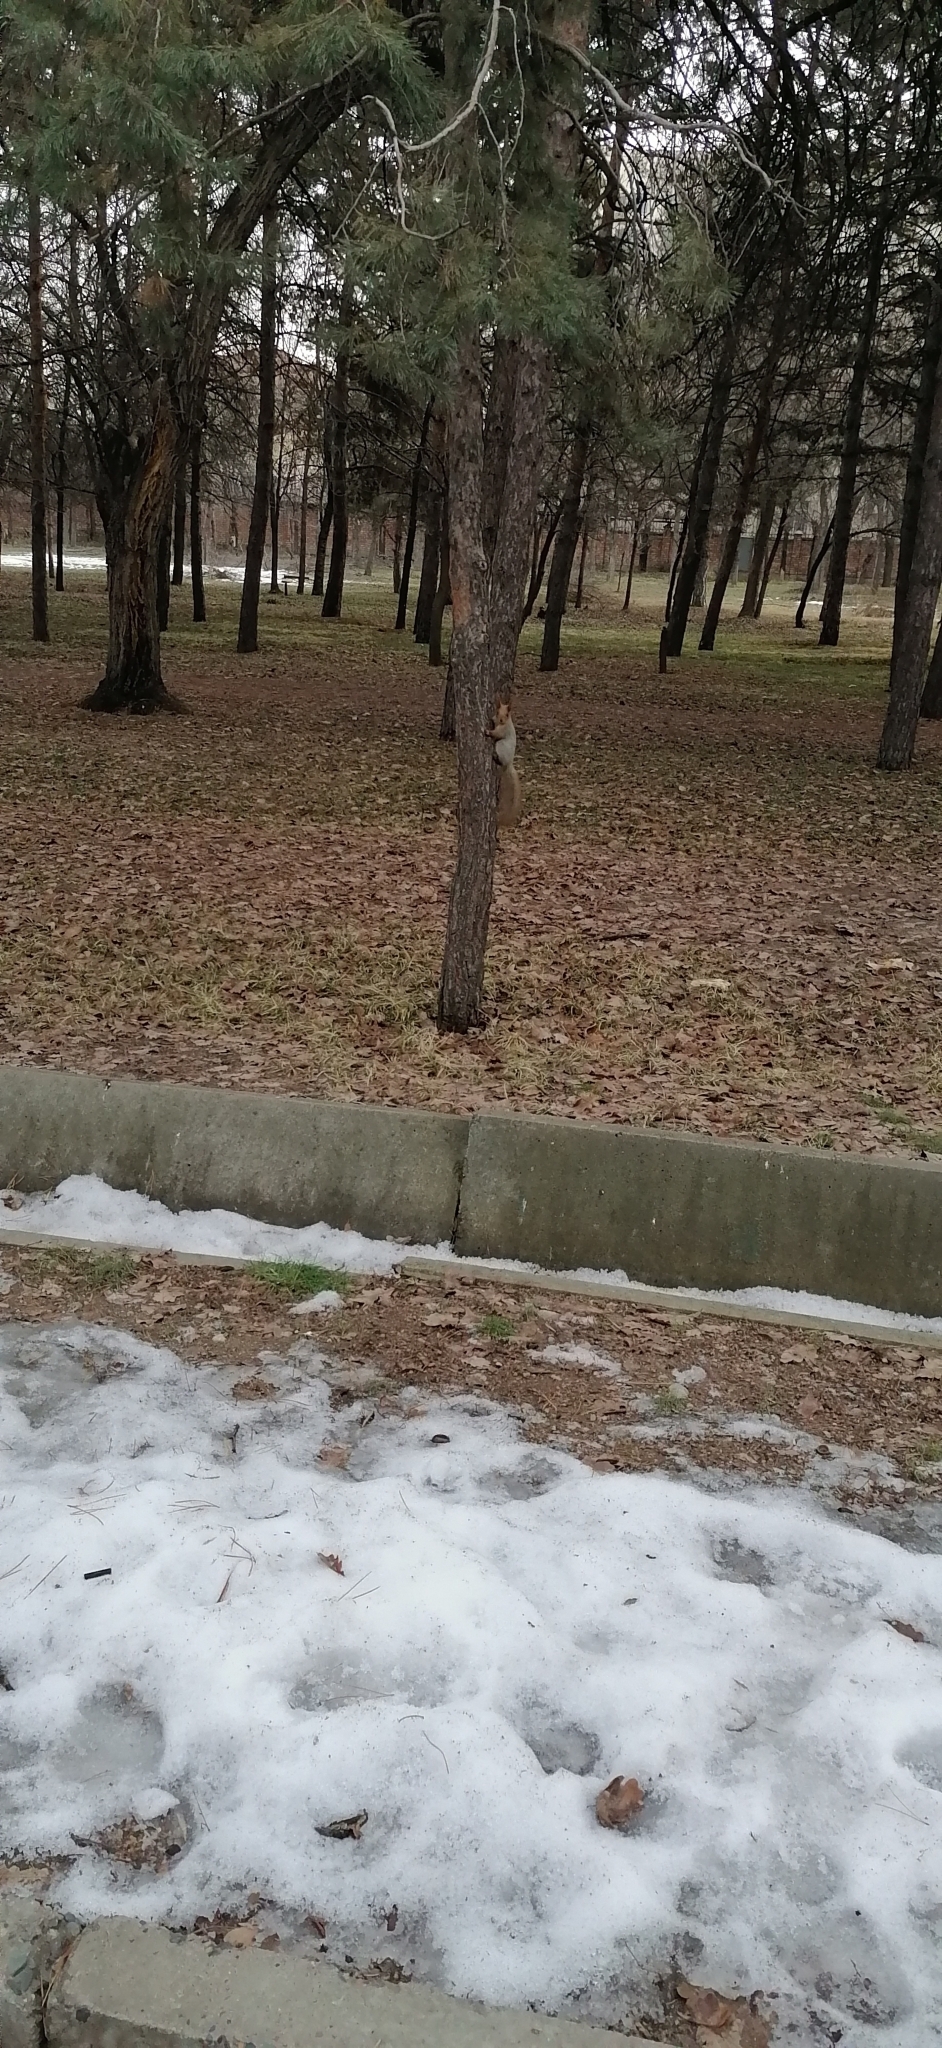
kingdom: Animalia
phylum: Chordata
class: Mammalia
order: Rodentia
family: Sciuridae
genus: Sciurus
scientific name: Sciurus vulgaris
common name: Eurasian red squirrel
